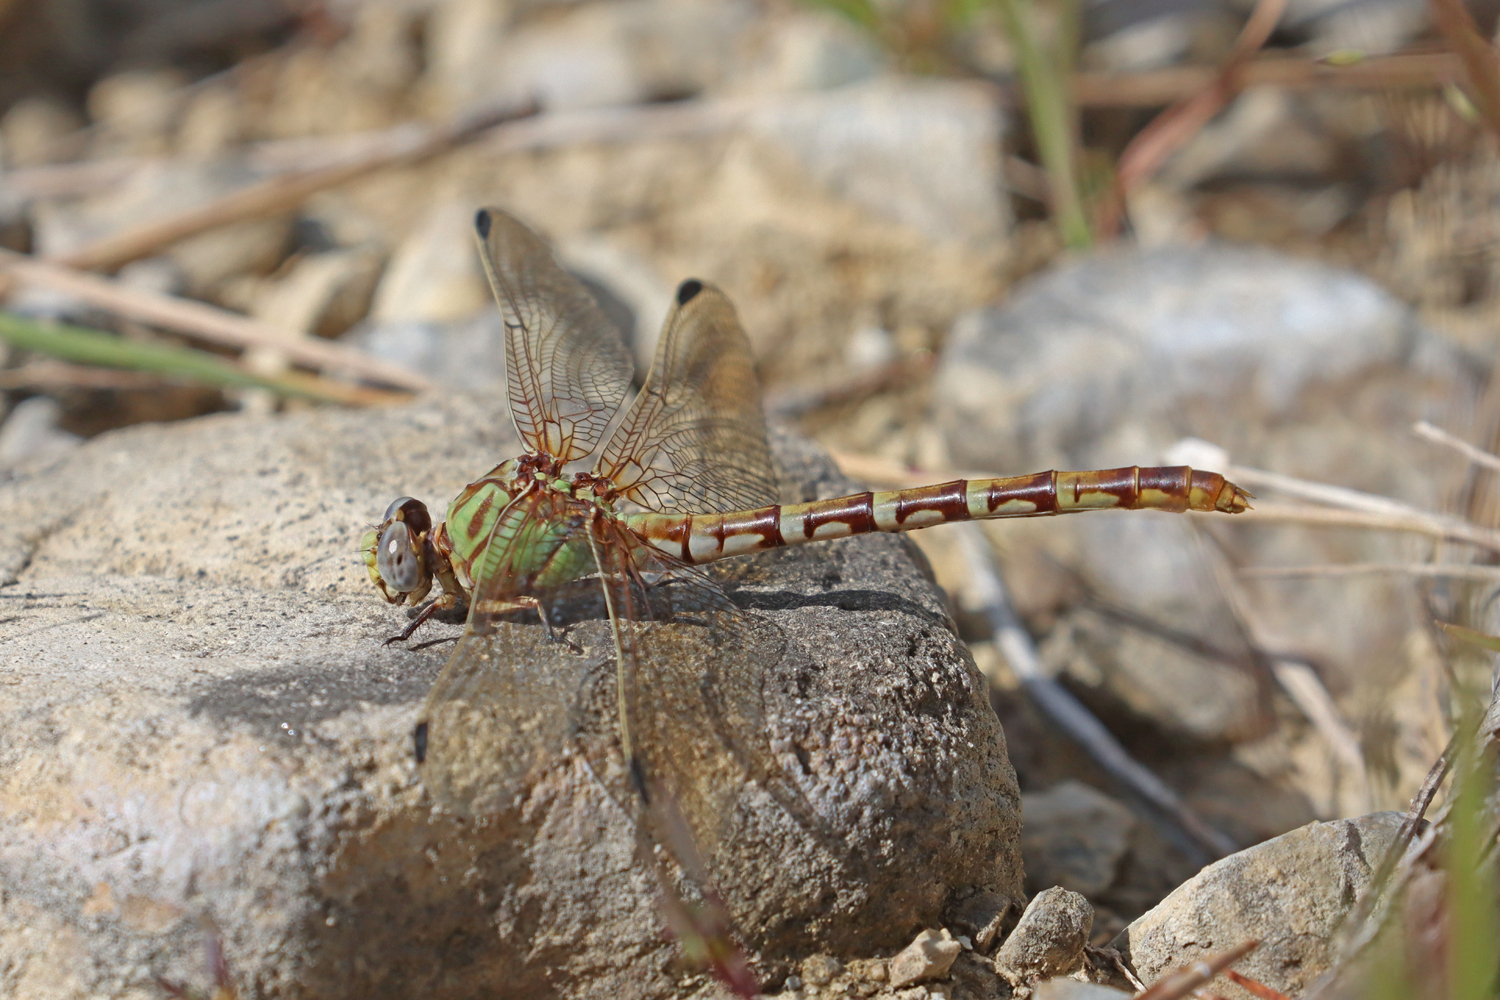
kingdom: Animalia
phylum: Arthropoda
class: Insecta
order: Odonata
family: Gomphidae
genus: Erpetogomphus
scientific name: Erpetogomphus designatus
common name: Eastern ringtail
